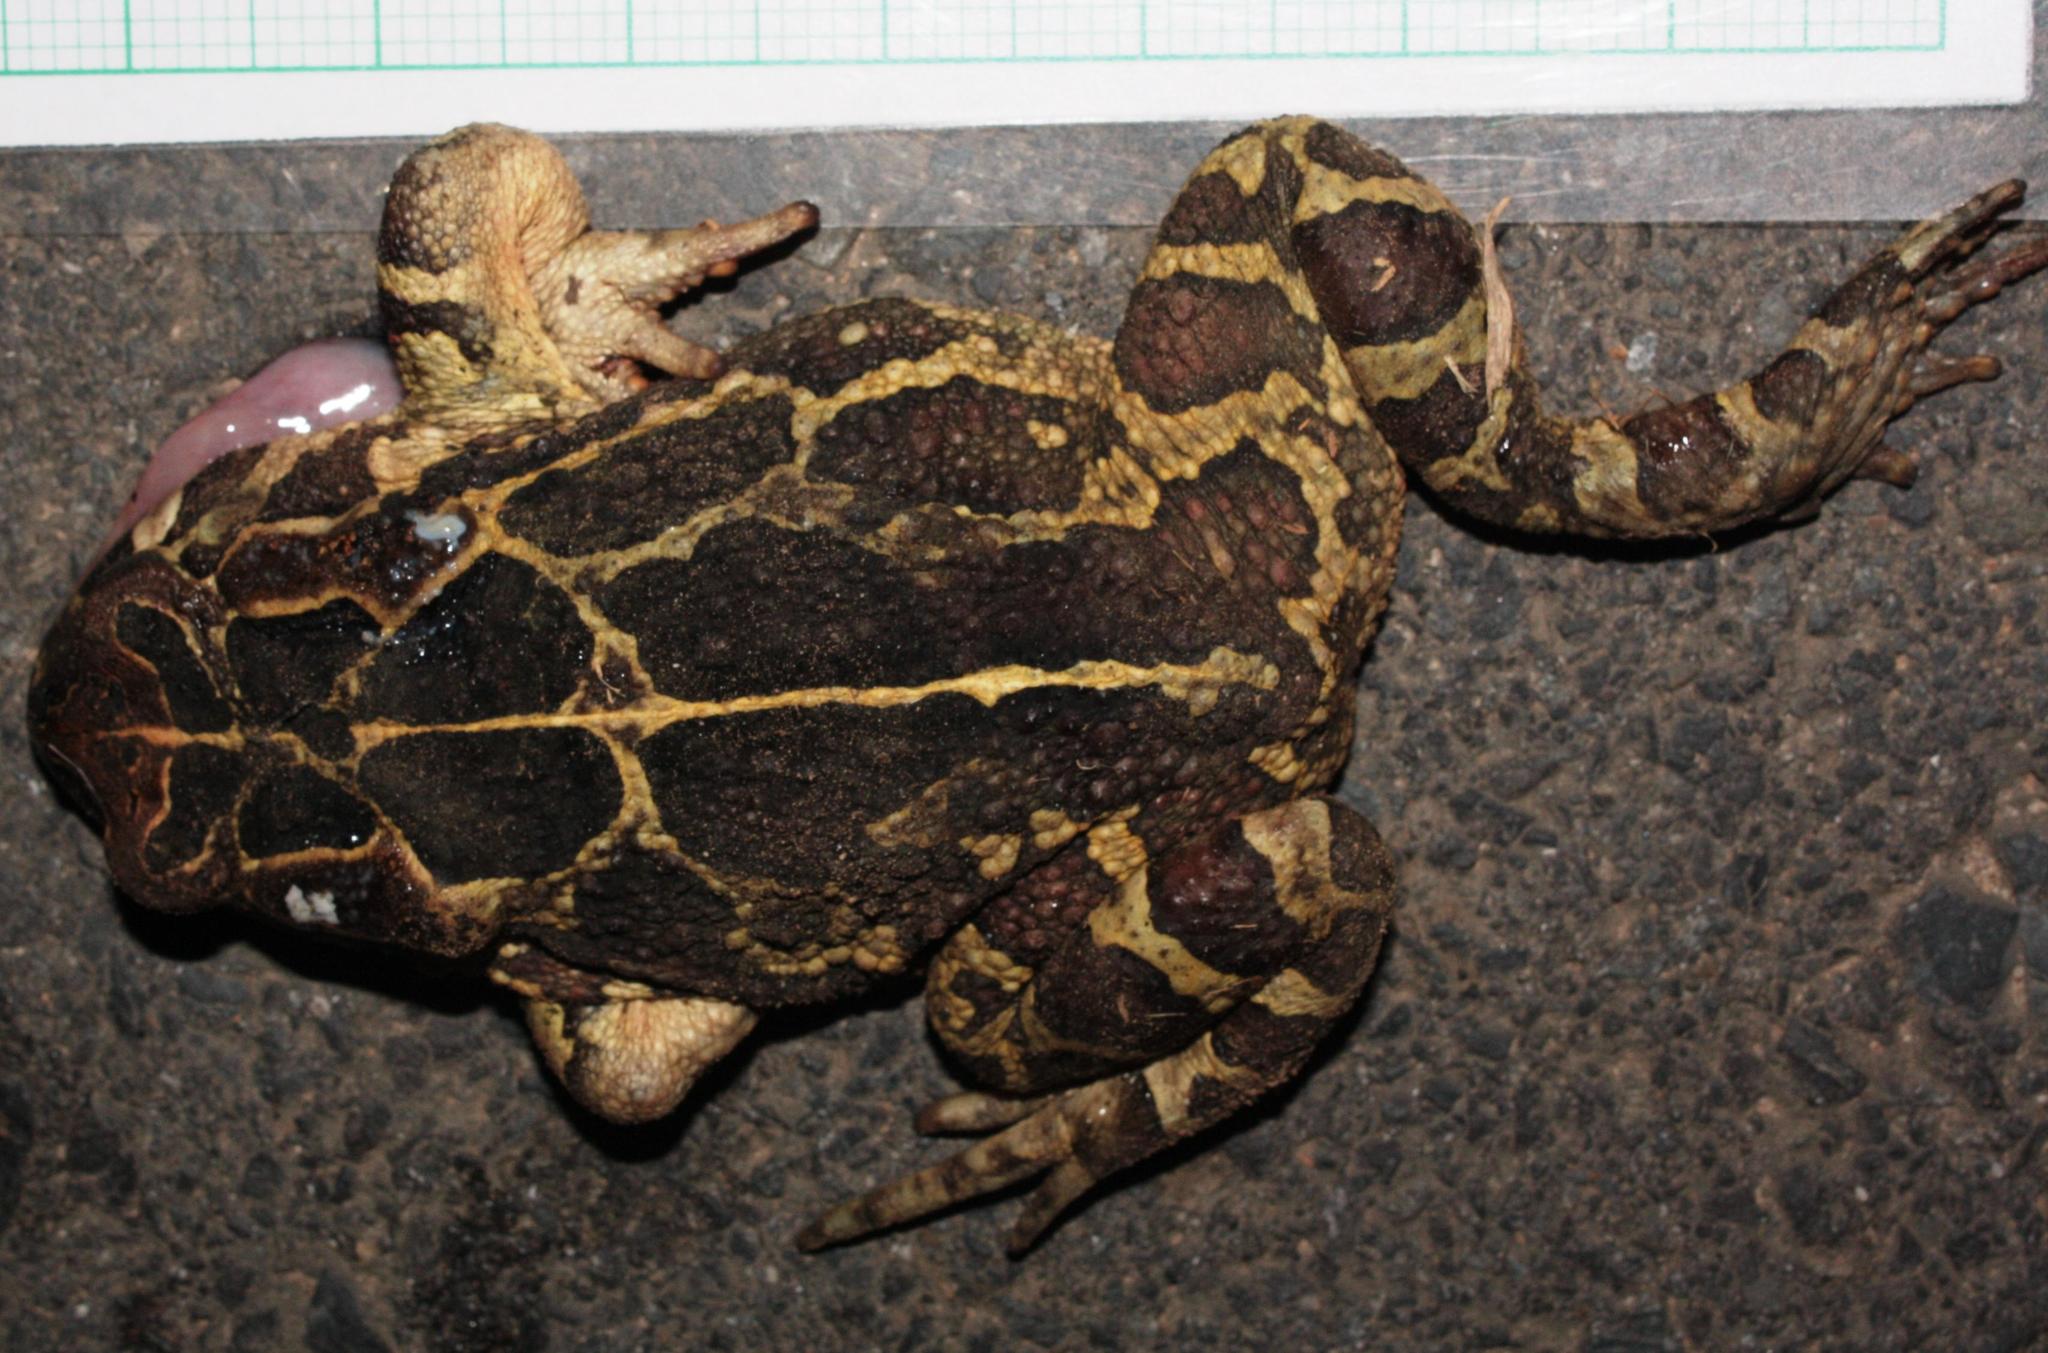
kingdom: Animalia
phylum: Chordata
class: Amphibia
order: Anura
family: Bufonidae
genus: Sclerophrys
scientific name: Sclerophrys pantherina
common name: Panther toad
